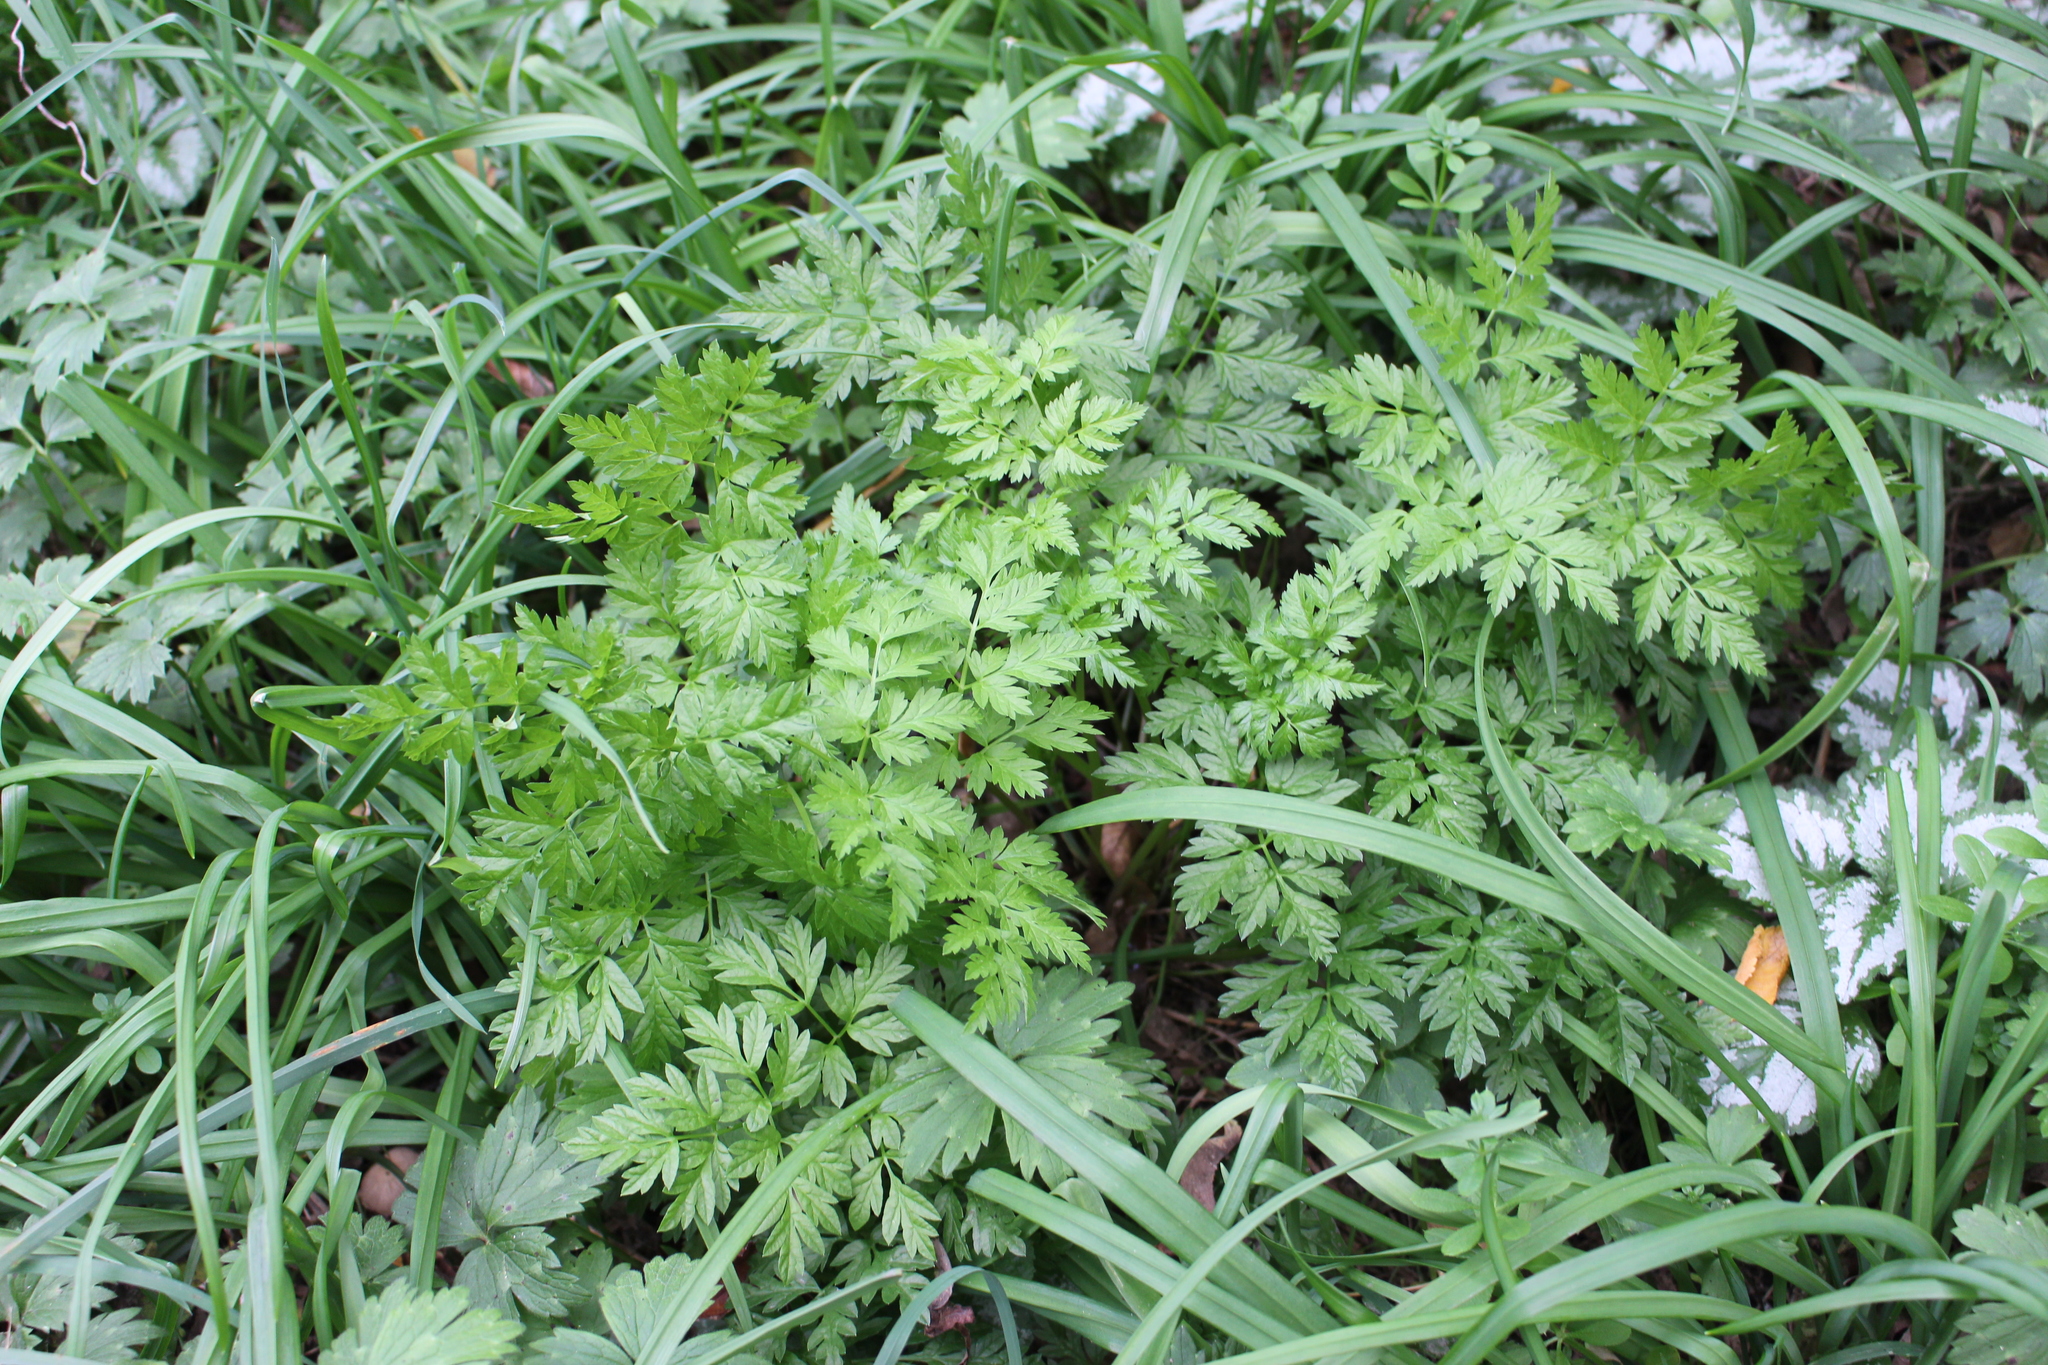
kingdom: Plantae
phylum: Tracheophyta
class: Magnoliopsida
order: Apiales
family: Apiaceae
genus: Anthriscus
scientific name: Anthriscus sylvestris
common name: Cow parsley
